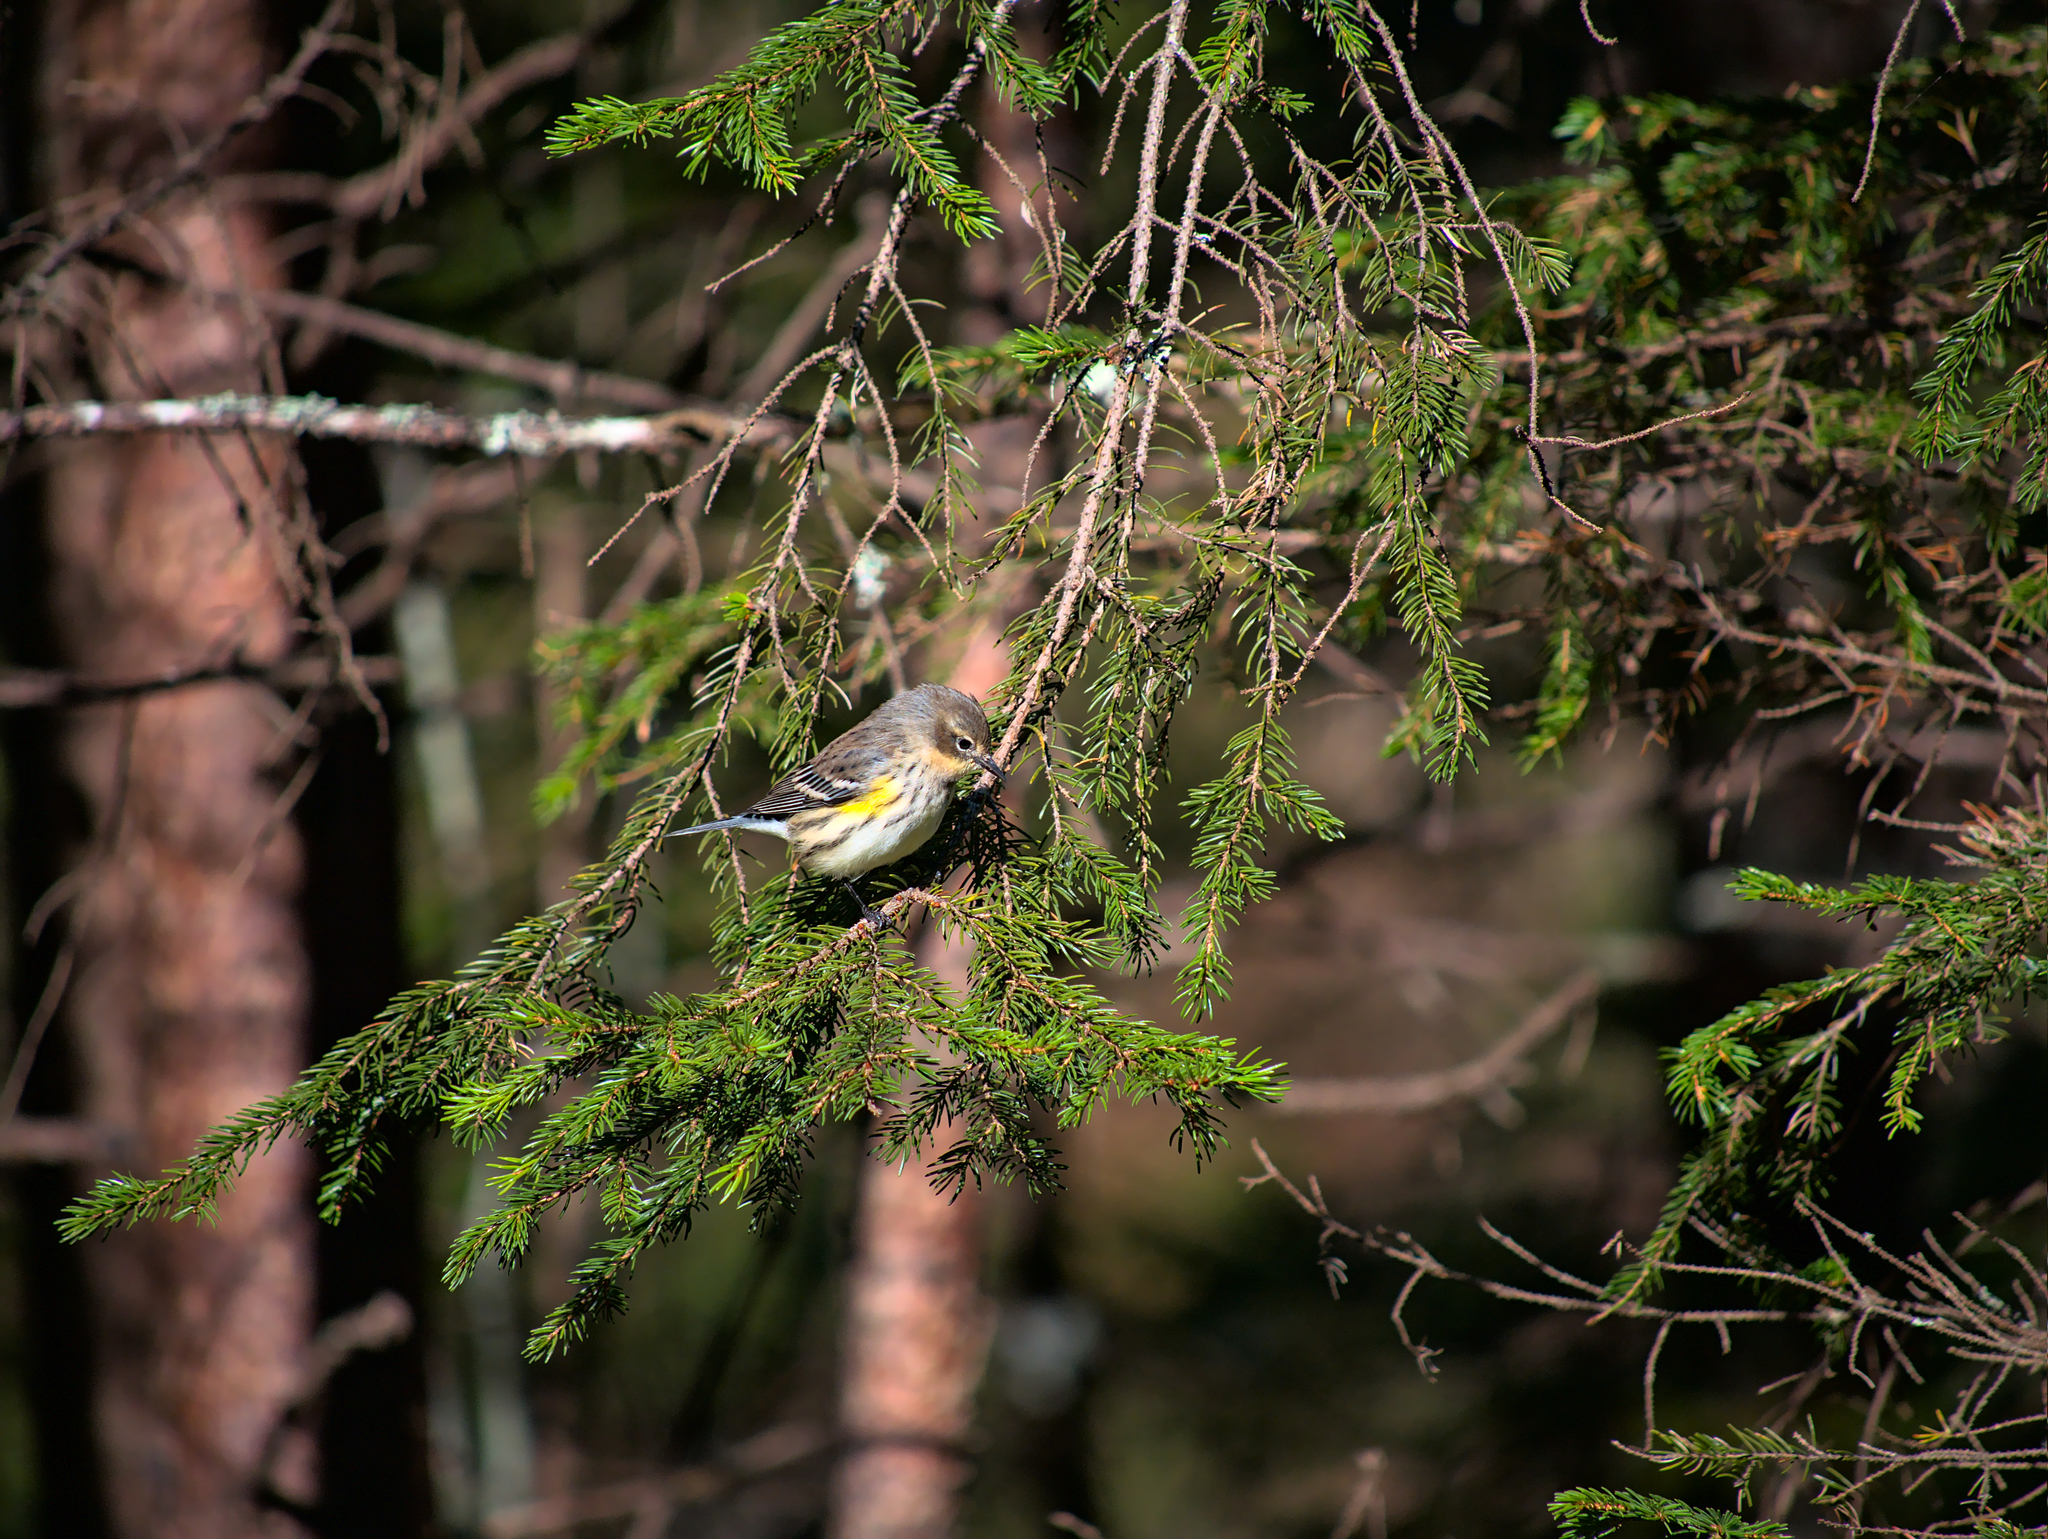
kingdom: Animalia
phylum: Chordata
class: Aves
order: Passeriformes
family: Parulidae
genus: Setophaga
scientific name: Setophaga coronata
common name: Myrtle warbler
